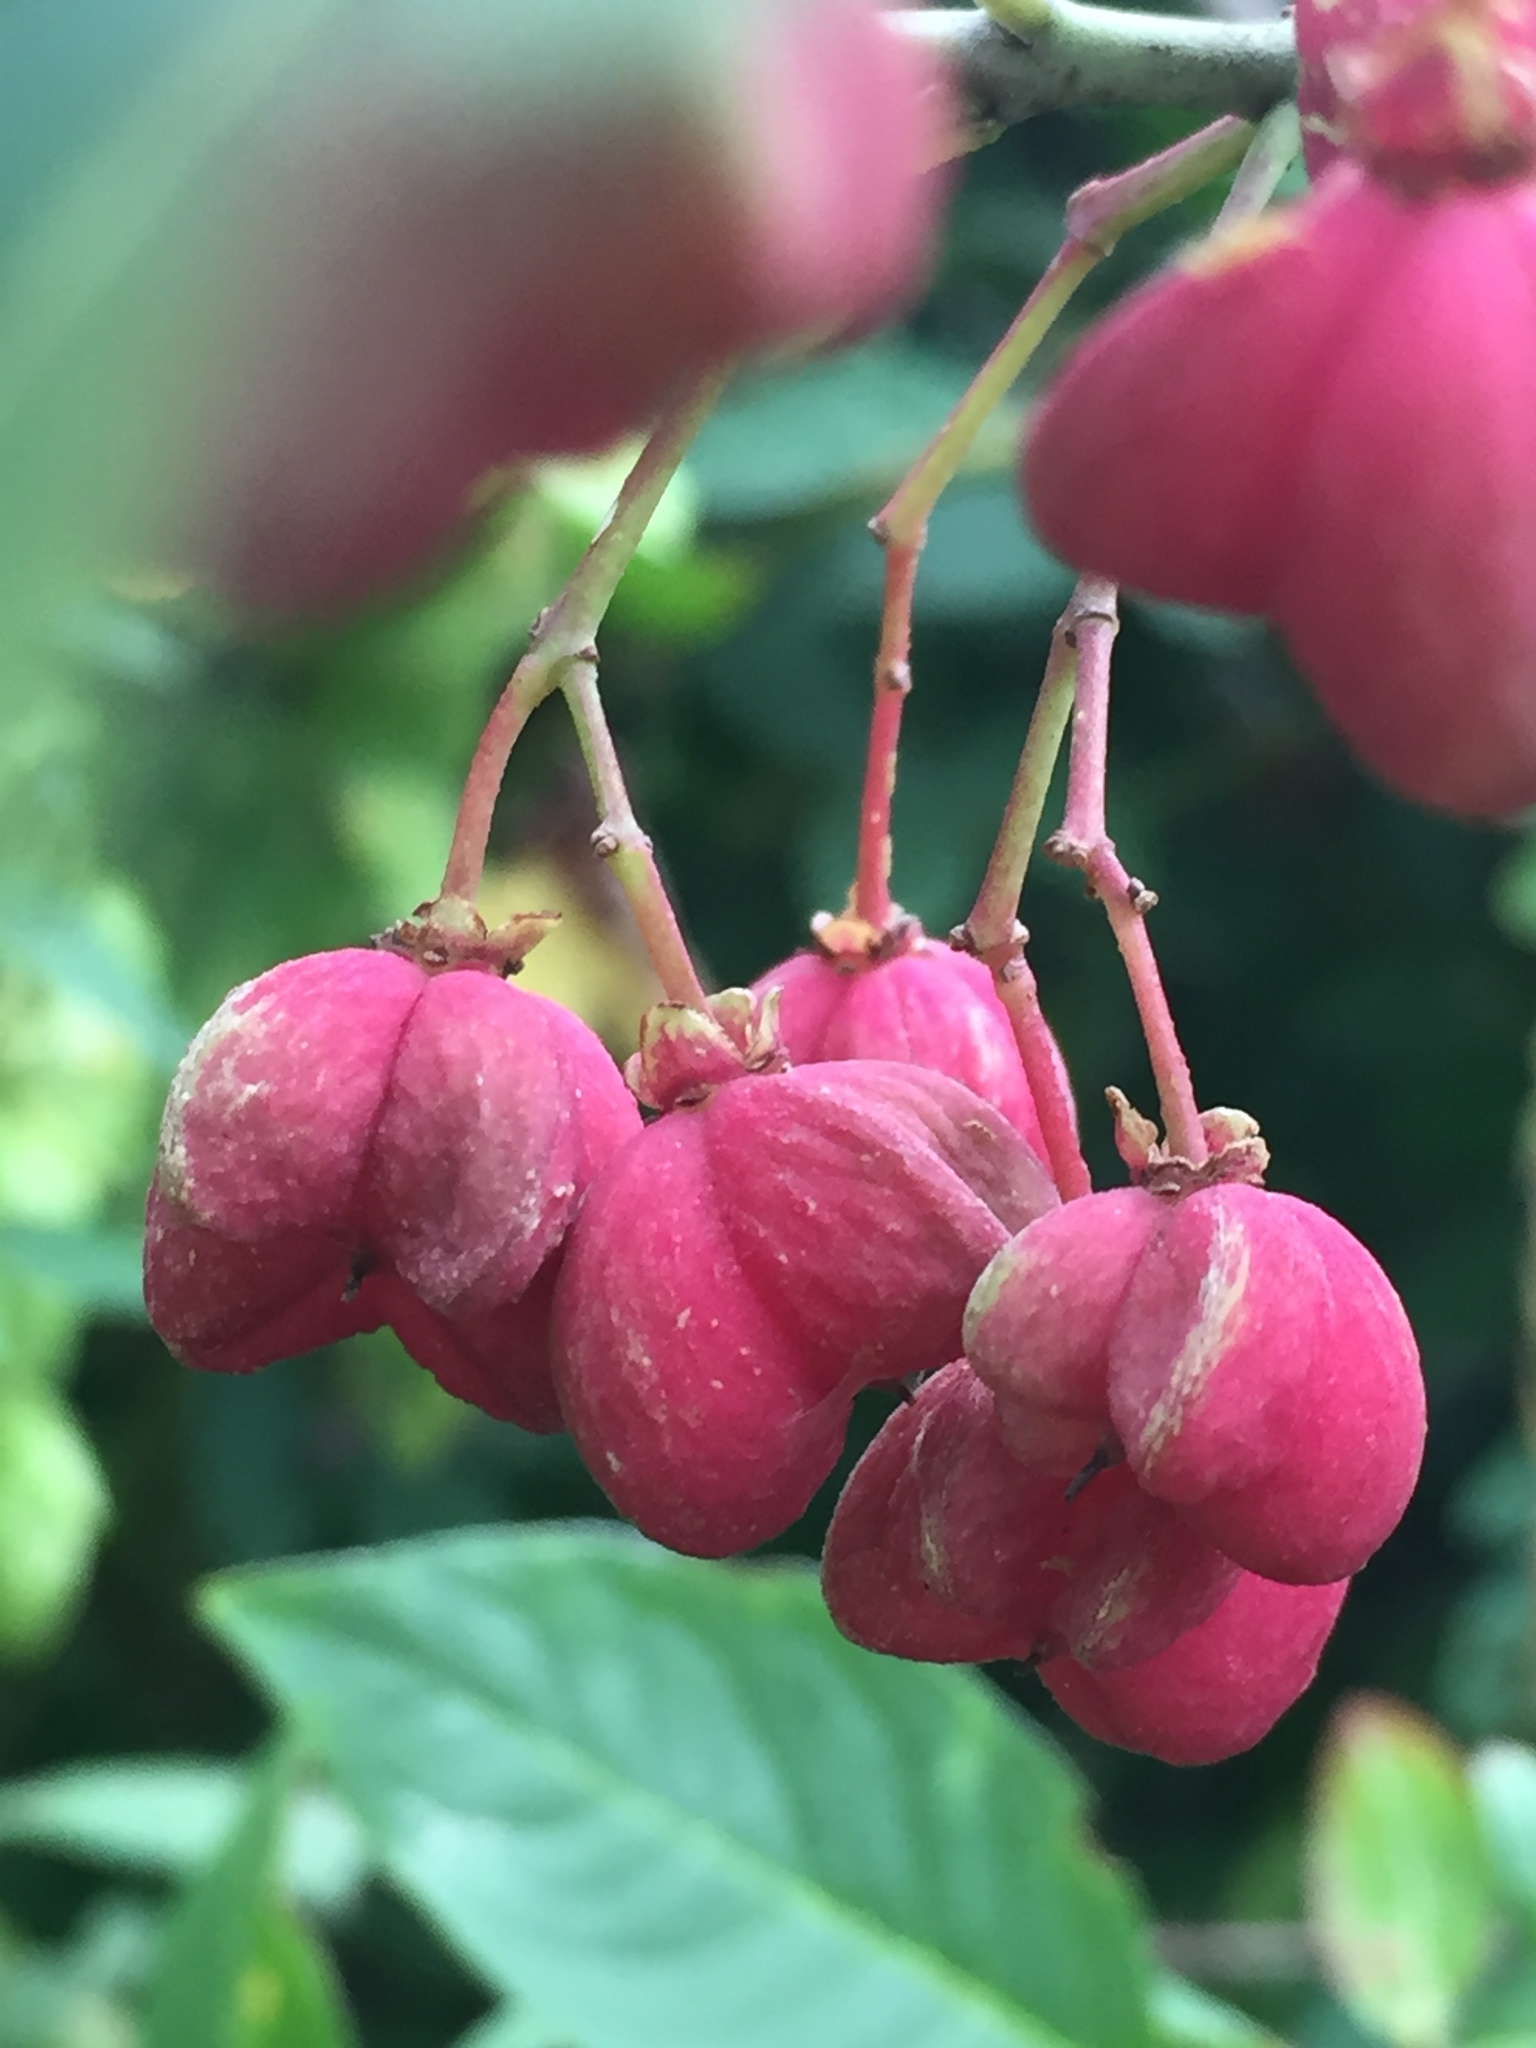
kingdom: Plantae
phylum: Tracheophyta
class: Magnoliopsida
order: Celastrales
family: Celastraceae
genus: Euonymus
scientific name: Euonymus europaeus
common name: Spindle
